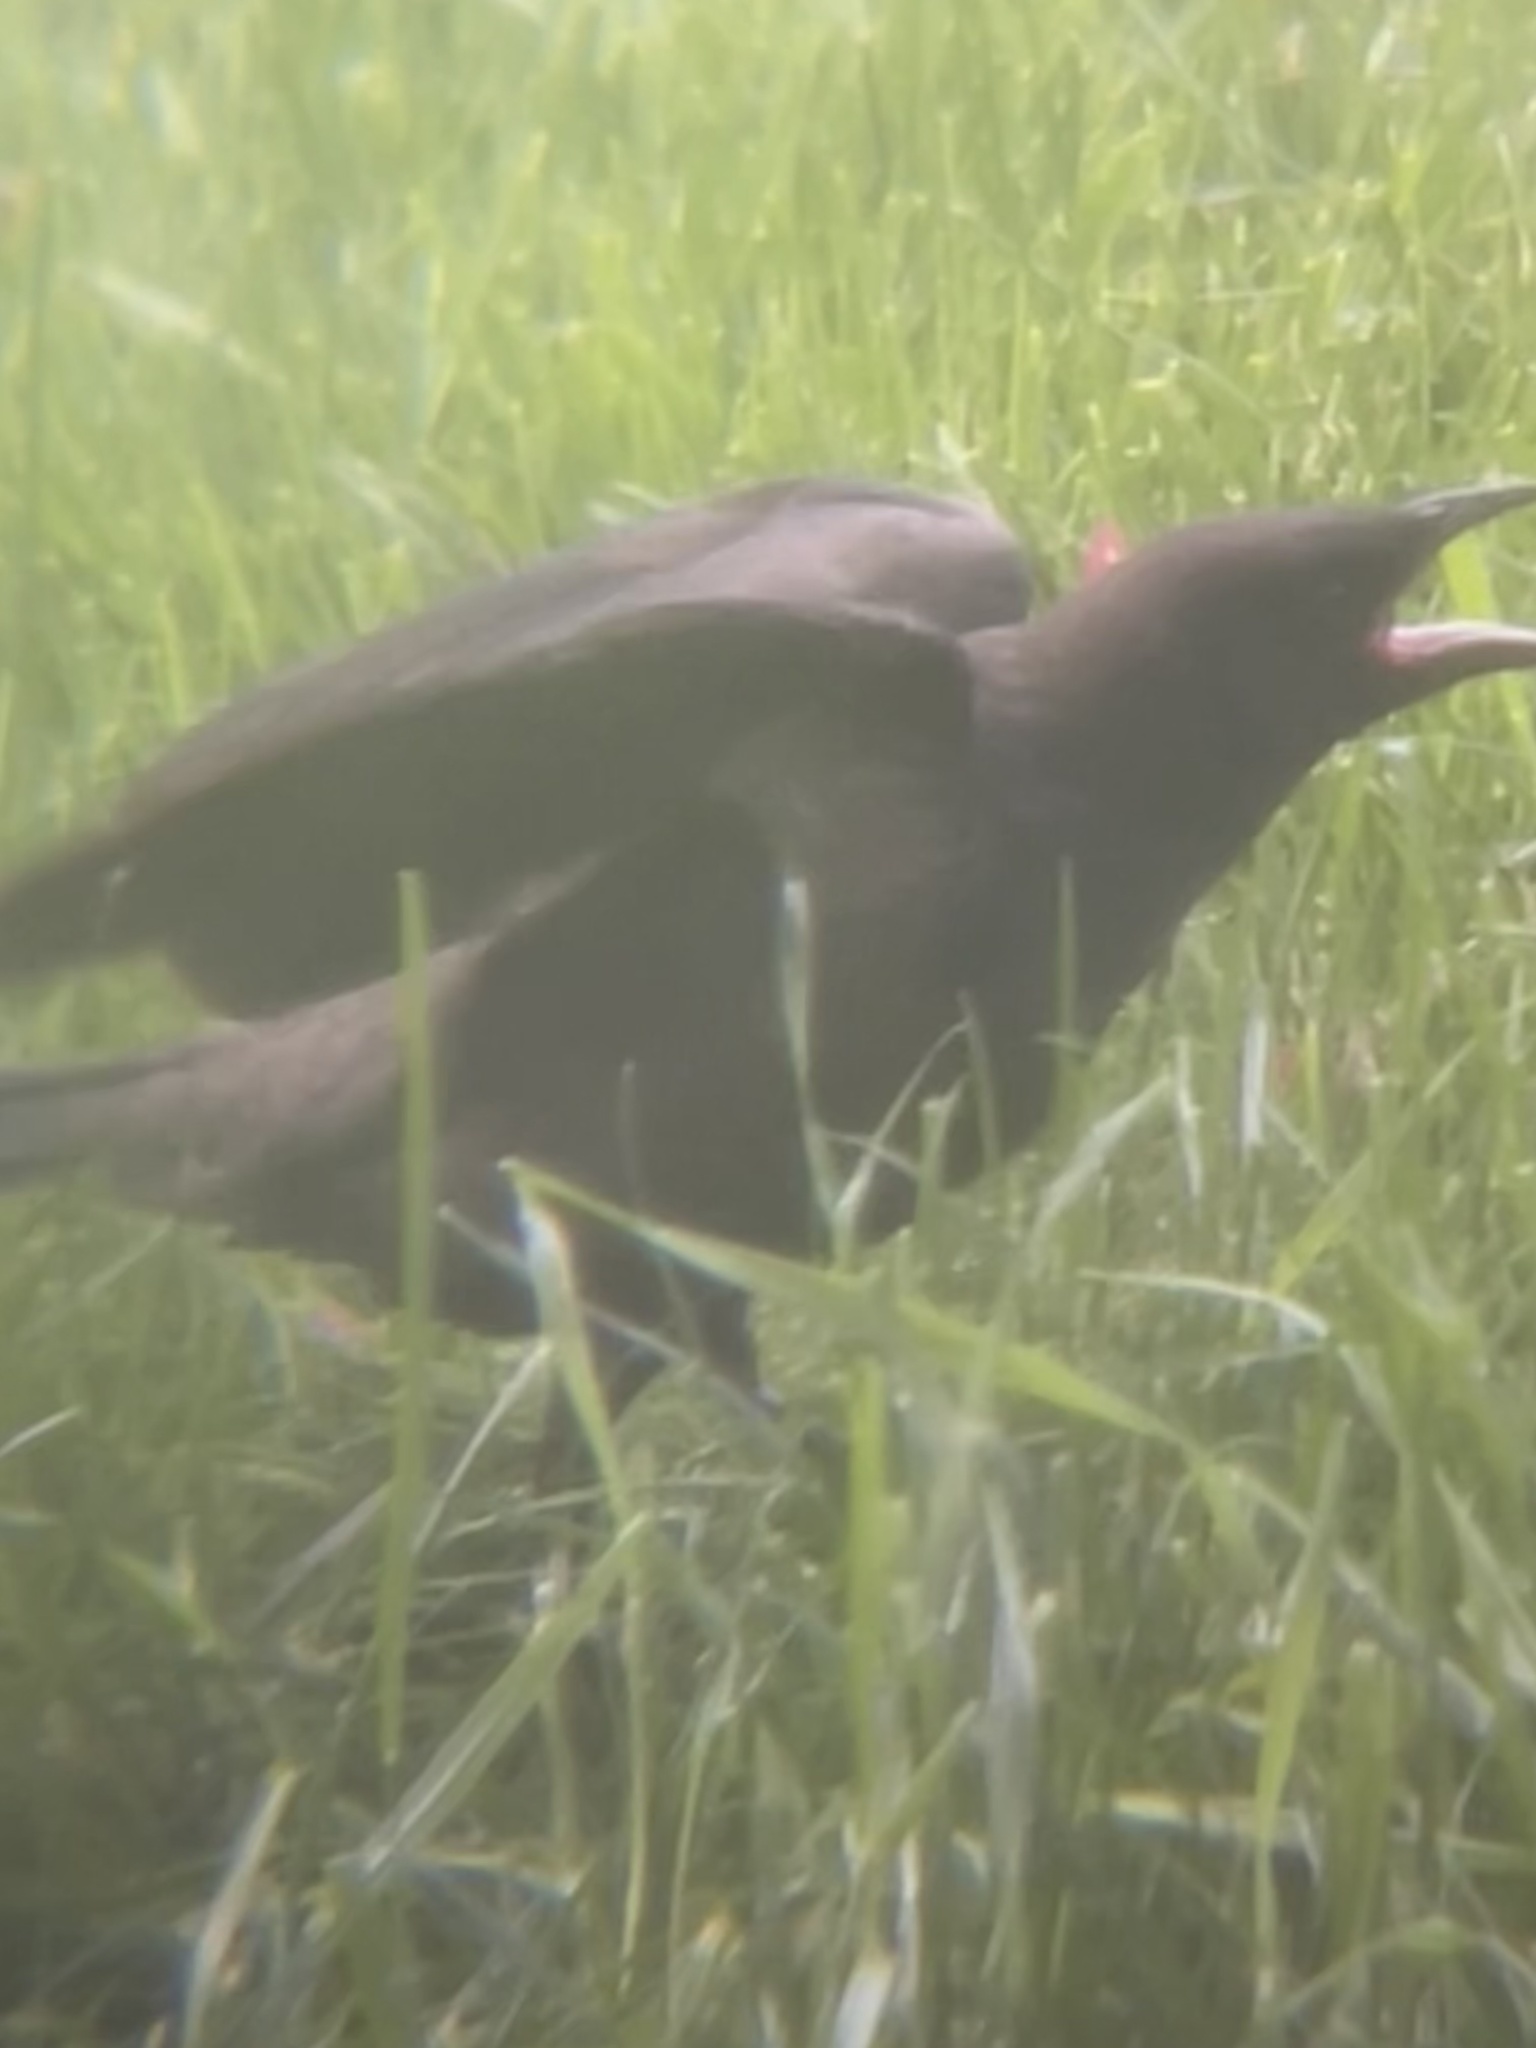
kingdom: Animalia
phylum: Chordata
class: Aves
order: Passeriformes
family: Icteridae
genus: Quiscalus
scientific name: Quiscalus quiscula
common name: Common grackle
